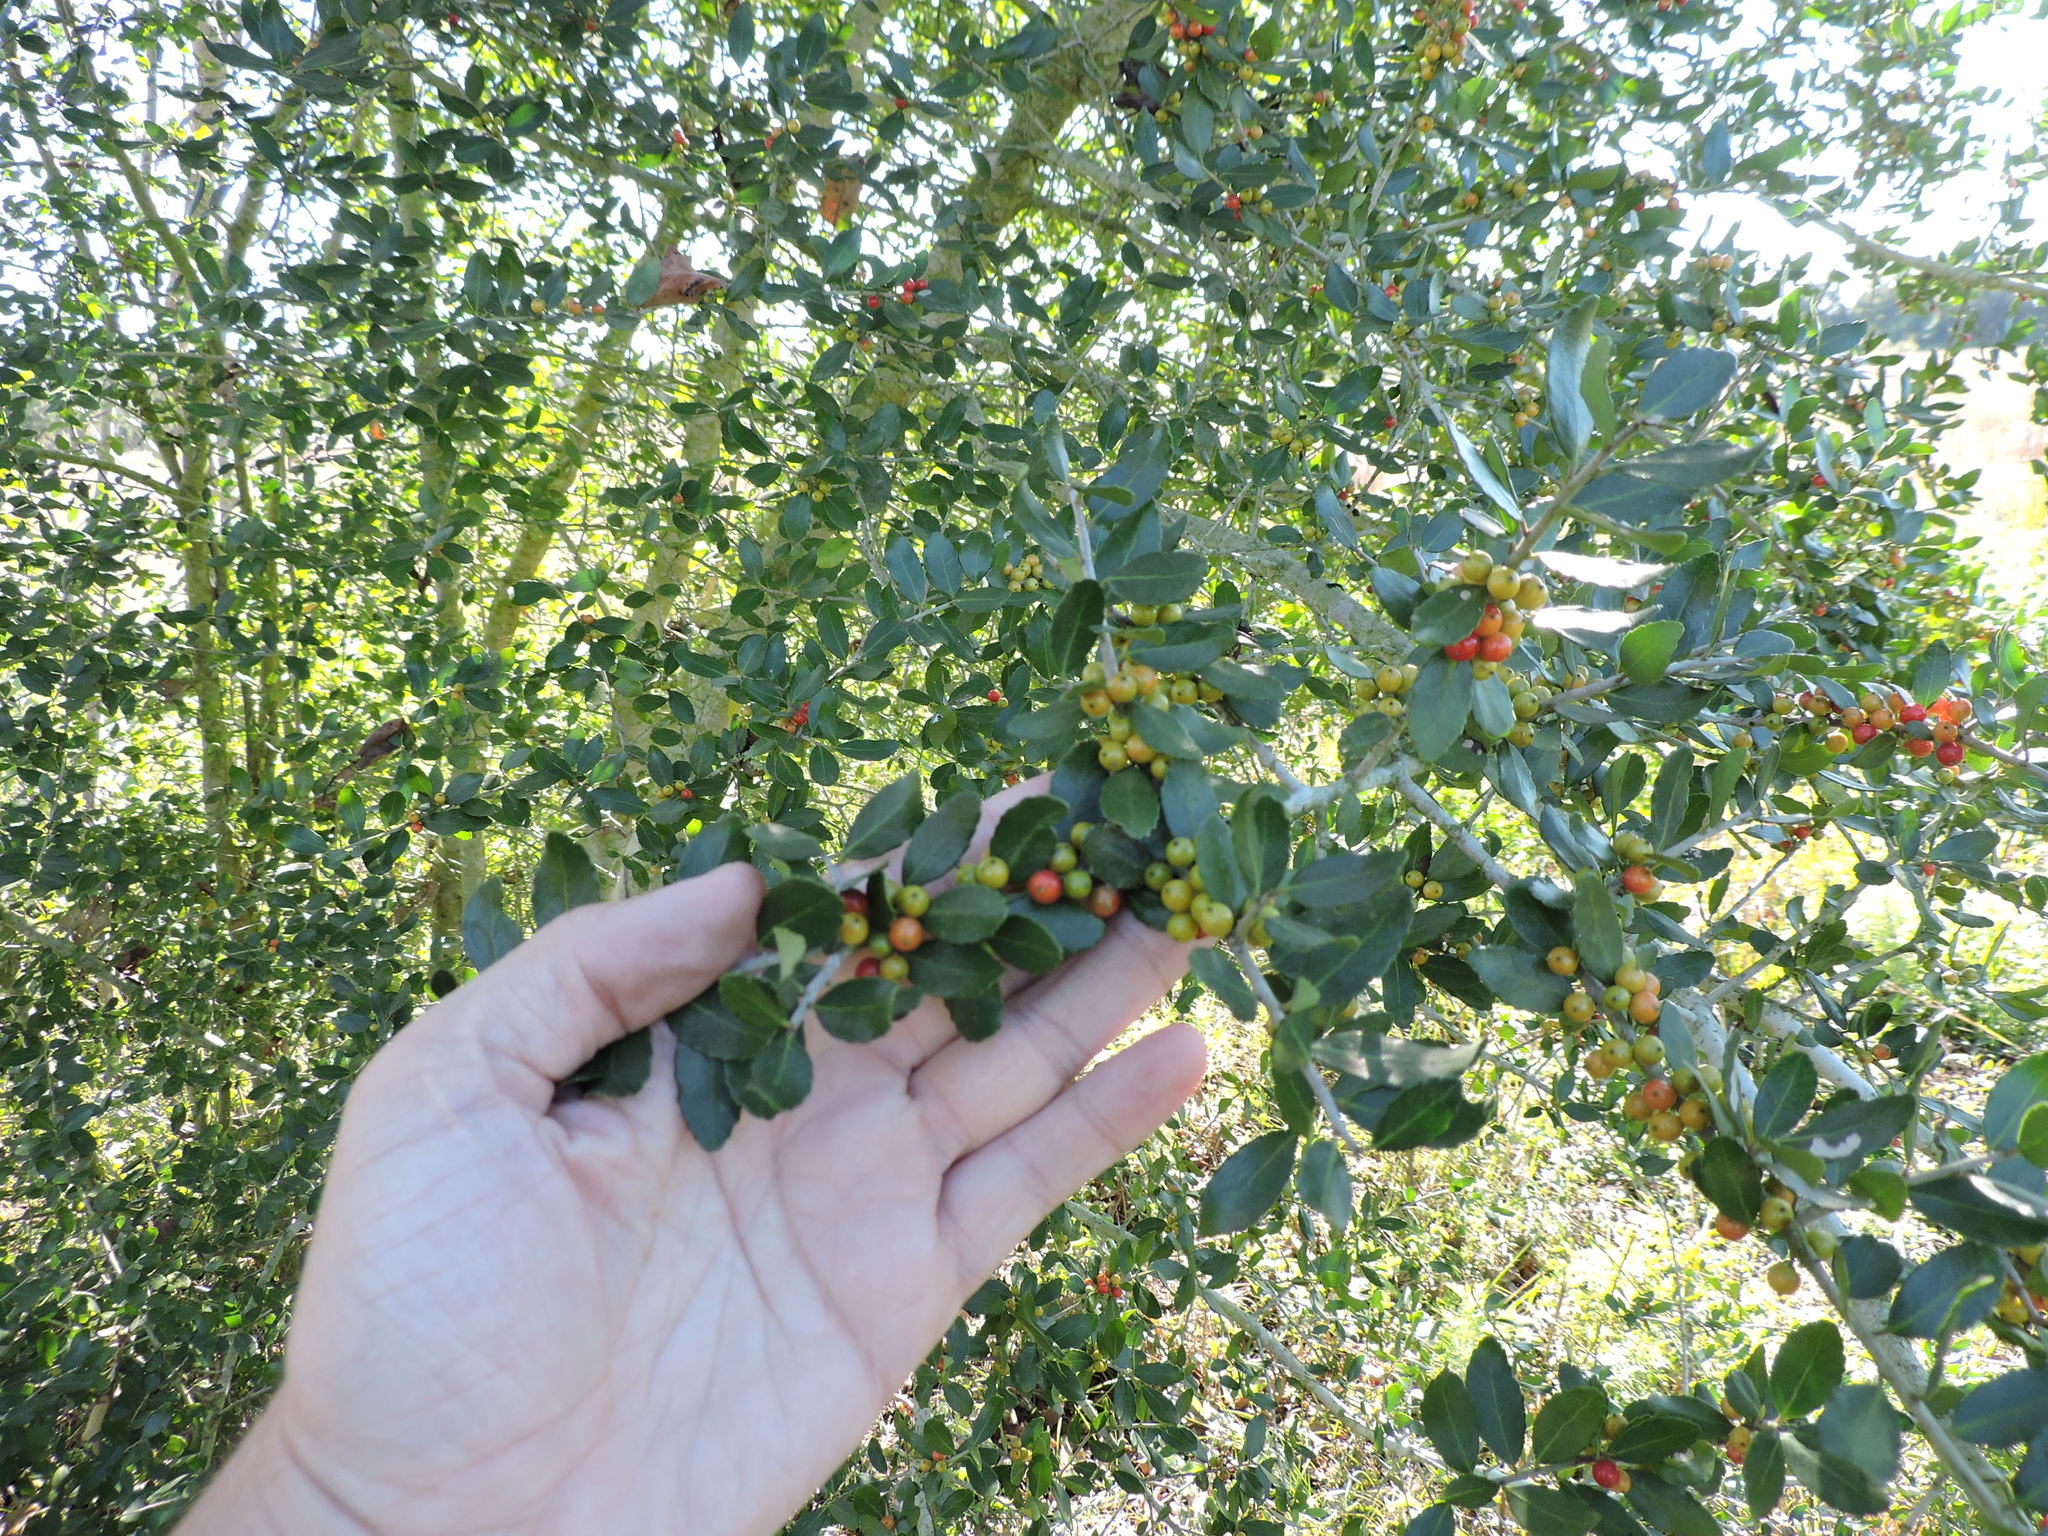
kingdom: Plantae
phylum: Tracheophyta
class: Magnoliopsida
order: Aquifoliales
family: Aquifoliaceae
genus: Ilex
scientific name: Ilex vomitoria
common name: Yaupon holly
